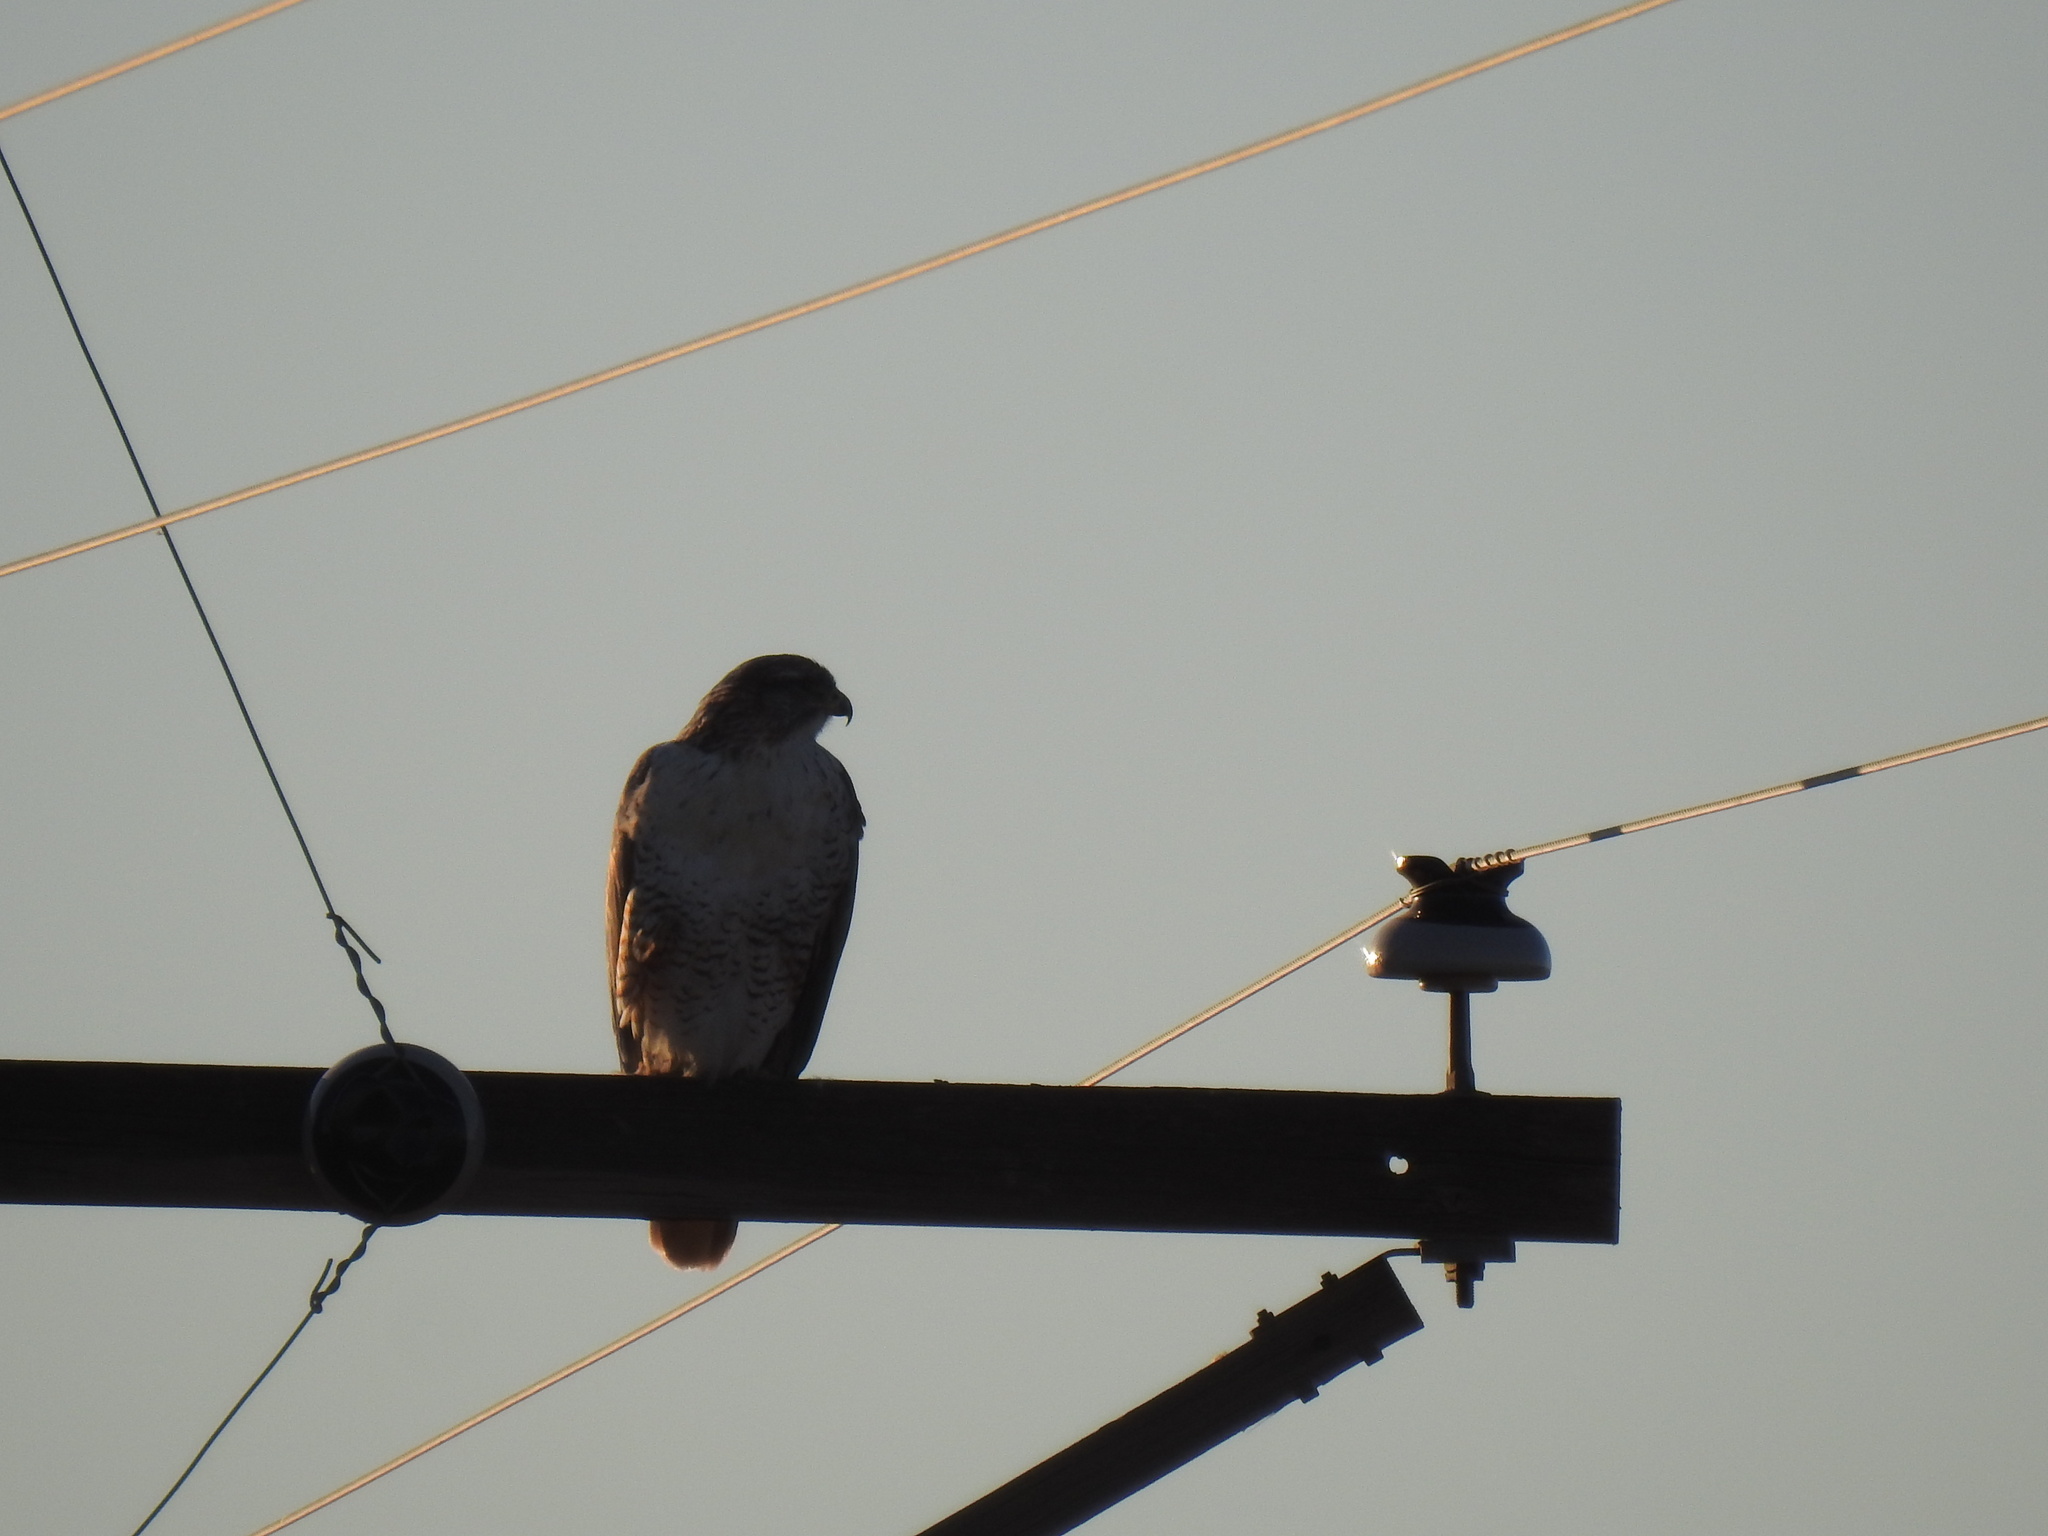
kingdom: Animalia
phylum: Chordata
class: Aves
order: Accipitriformes
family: Accipitridae
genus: Buteo
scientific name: Buteo jamaicensis
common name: Red-tailed hawk
